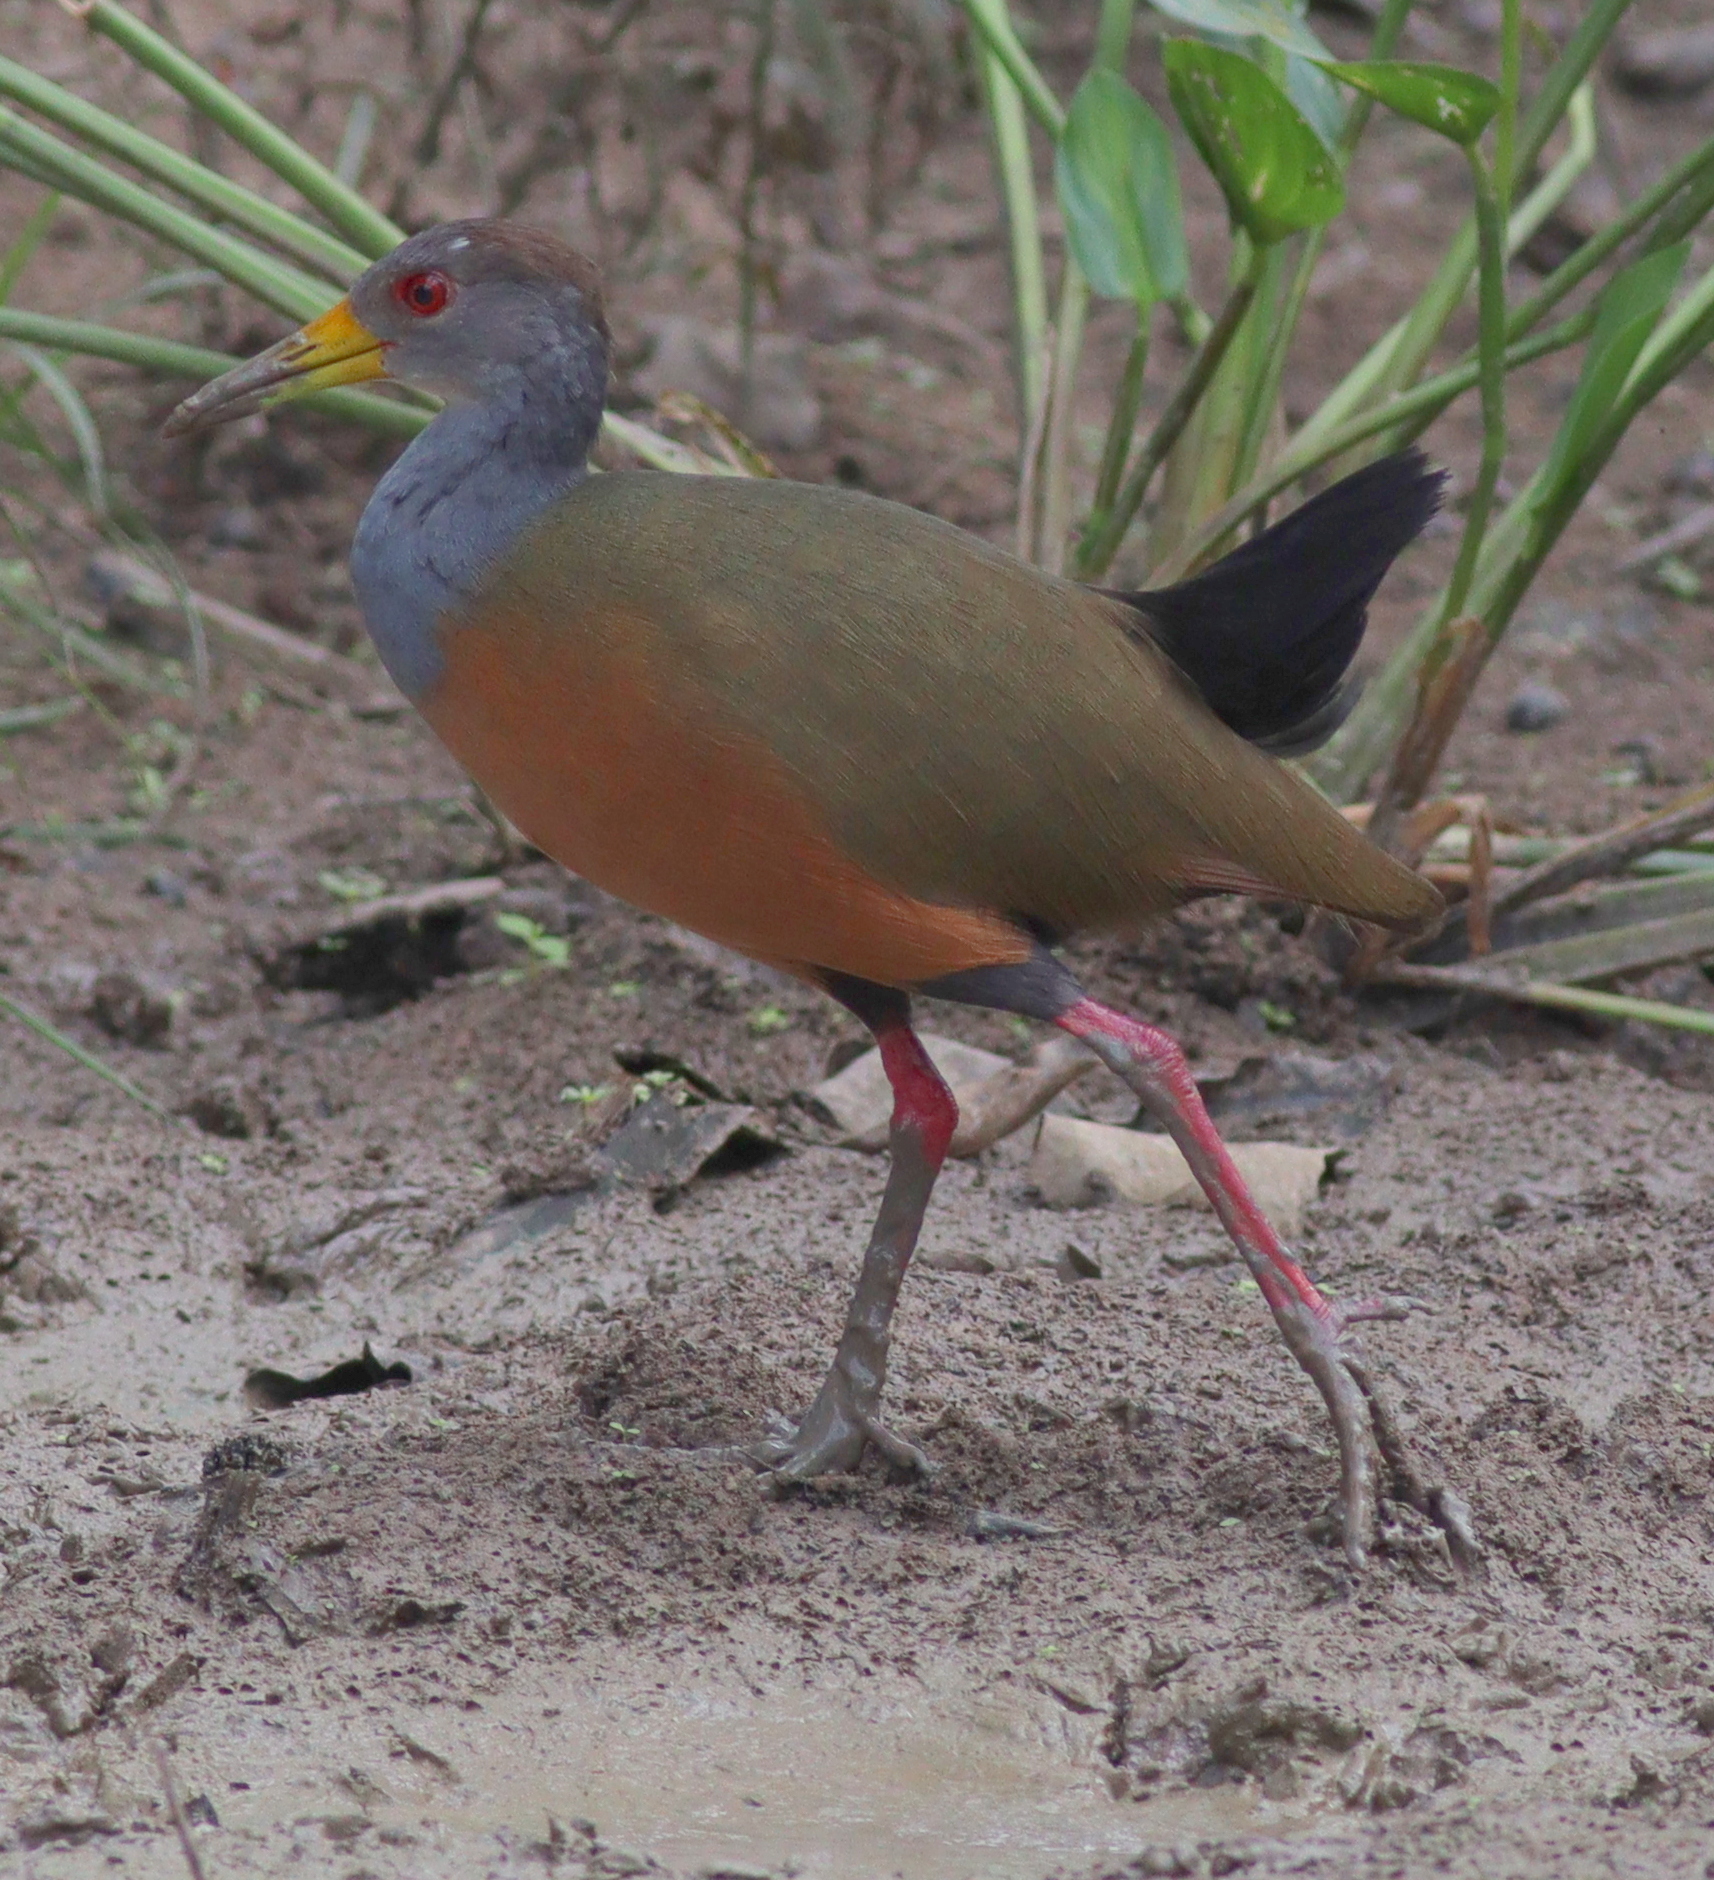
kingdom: Animalia
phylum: Chordata
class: Aves
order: Gruiformes
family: Rallidae
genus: Aramides
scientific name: Aramides cajanea
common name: Gray-necked wood-rail
